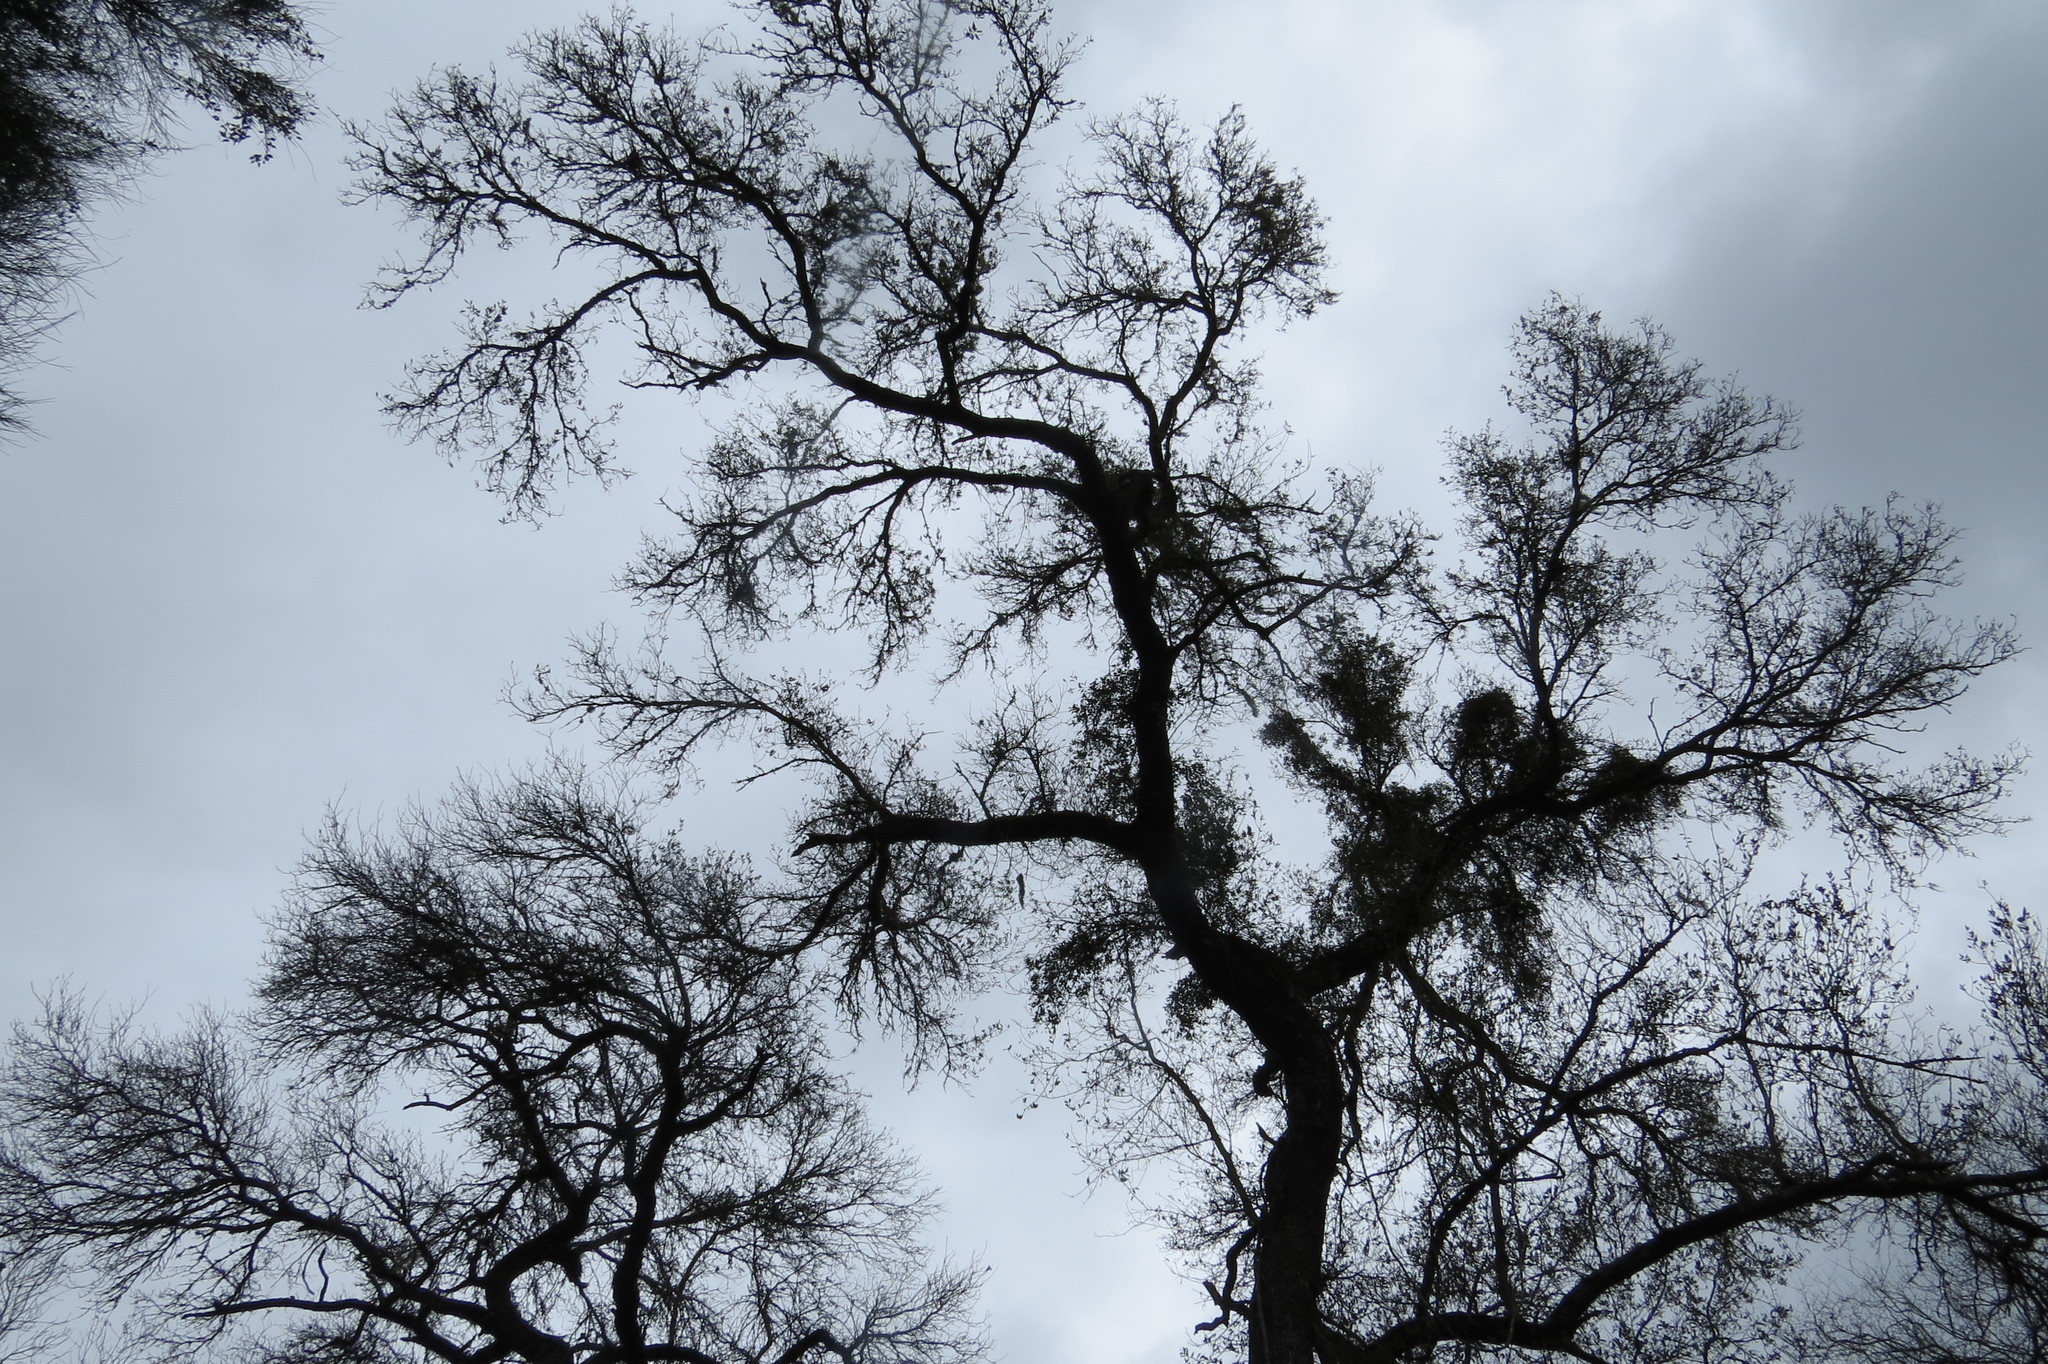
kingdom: Plantae
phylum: Tracheophyta
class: Magnoliopsida
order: Sapindales
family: Anacardiaceae
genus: Schinopsis
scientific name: Schinopsis balansae
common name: Red quebracho
